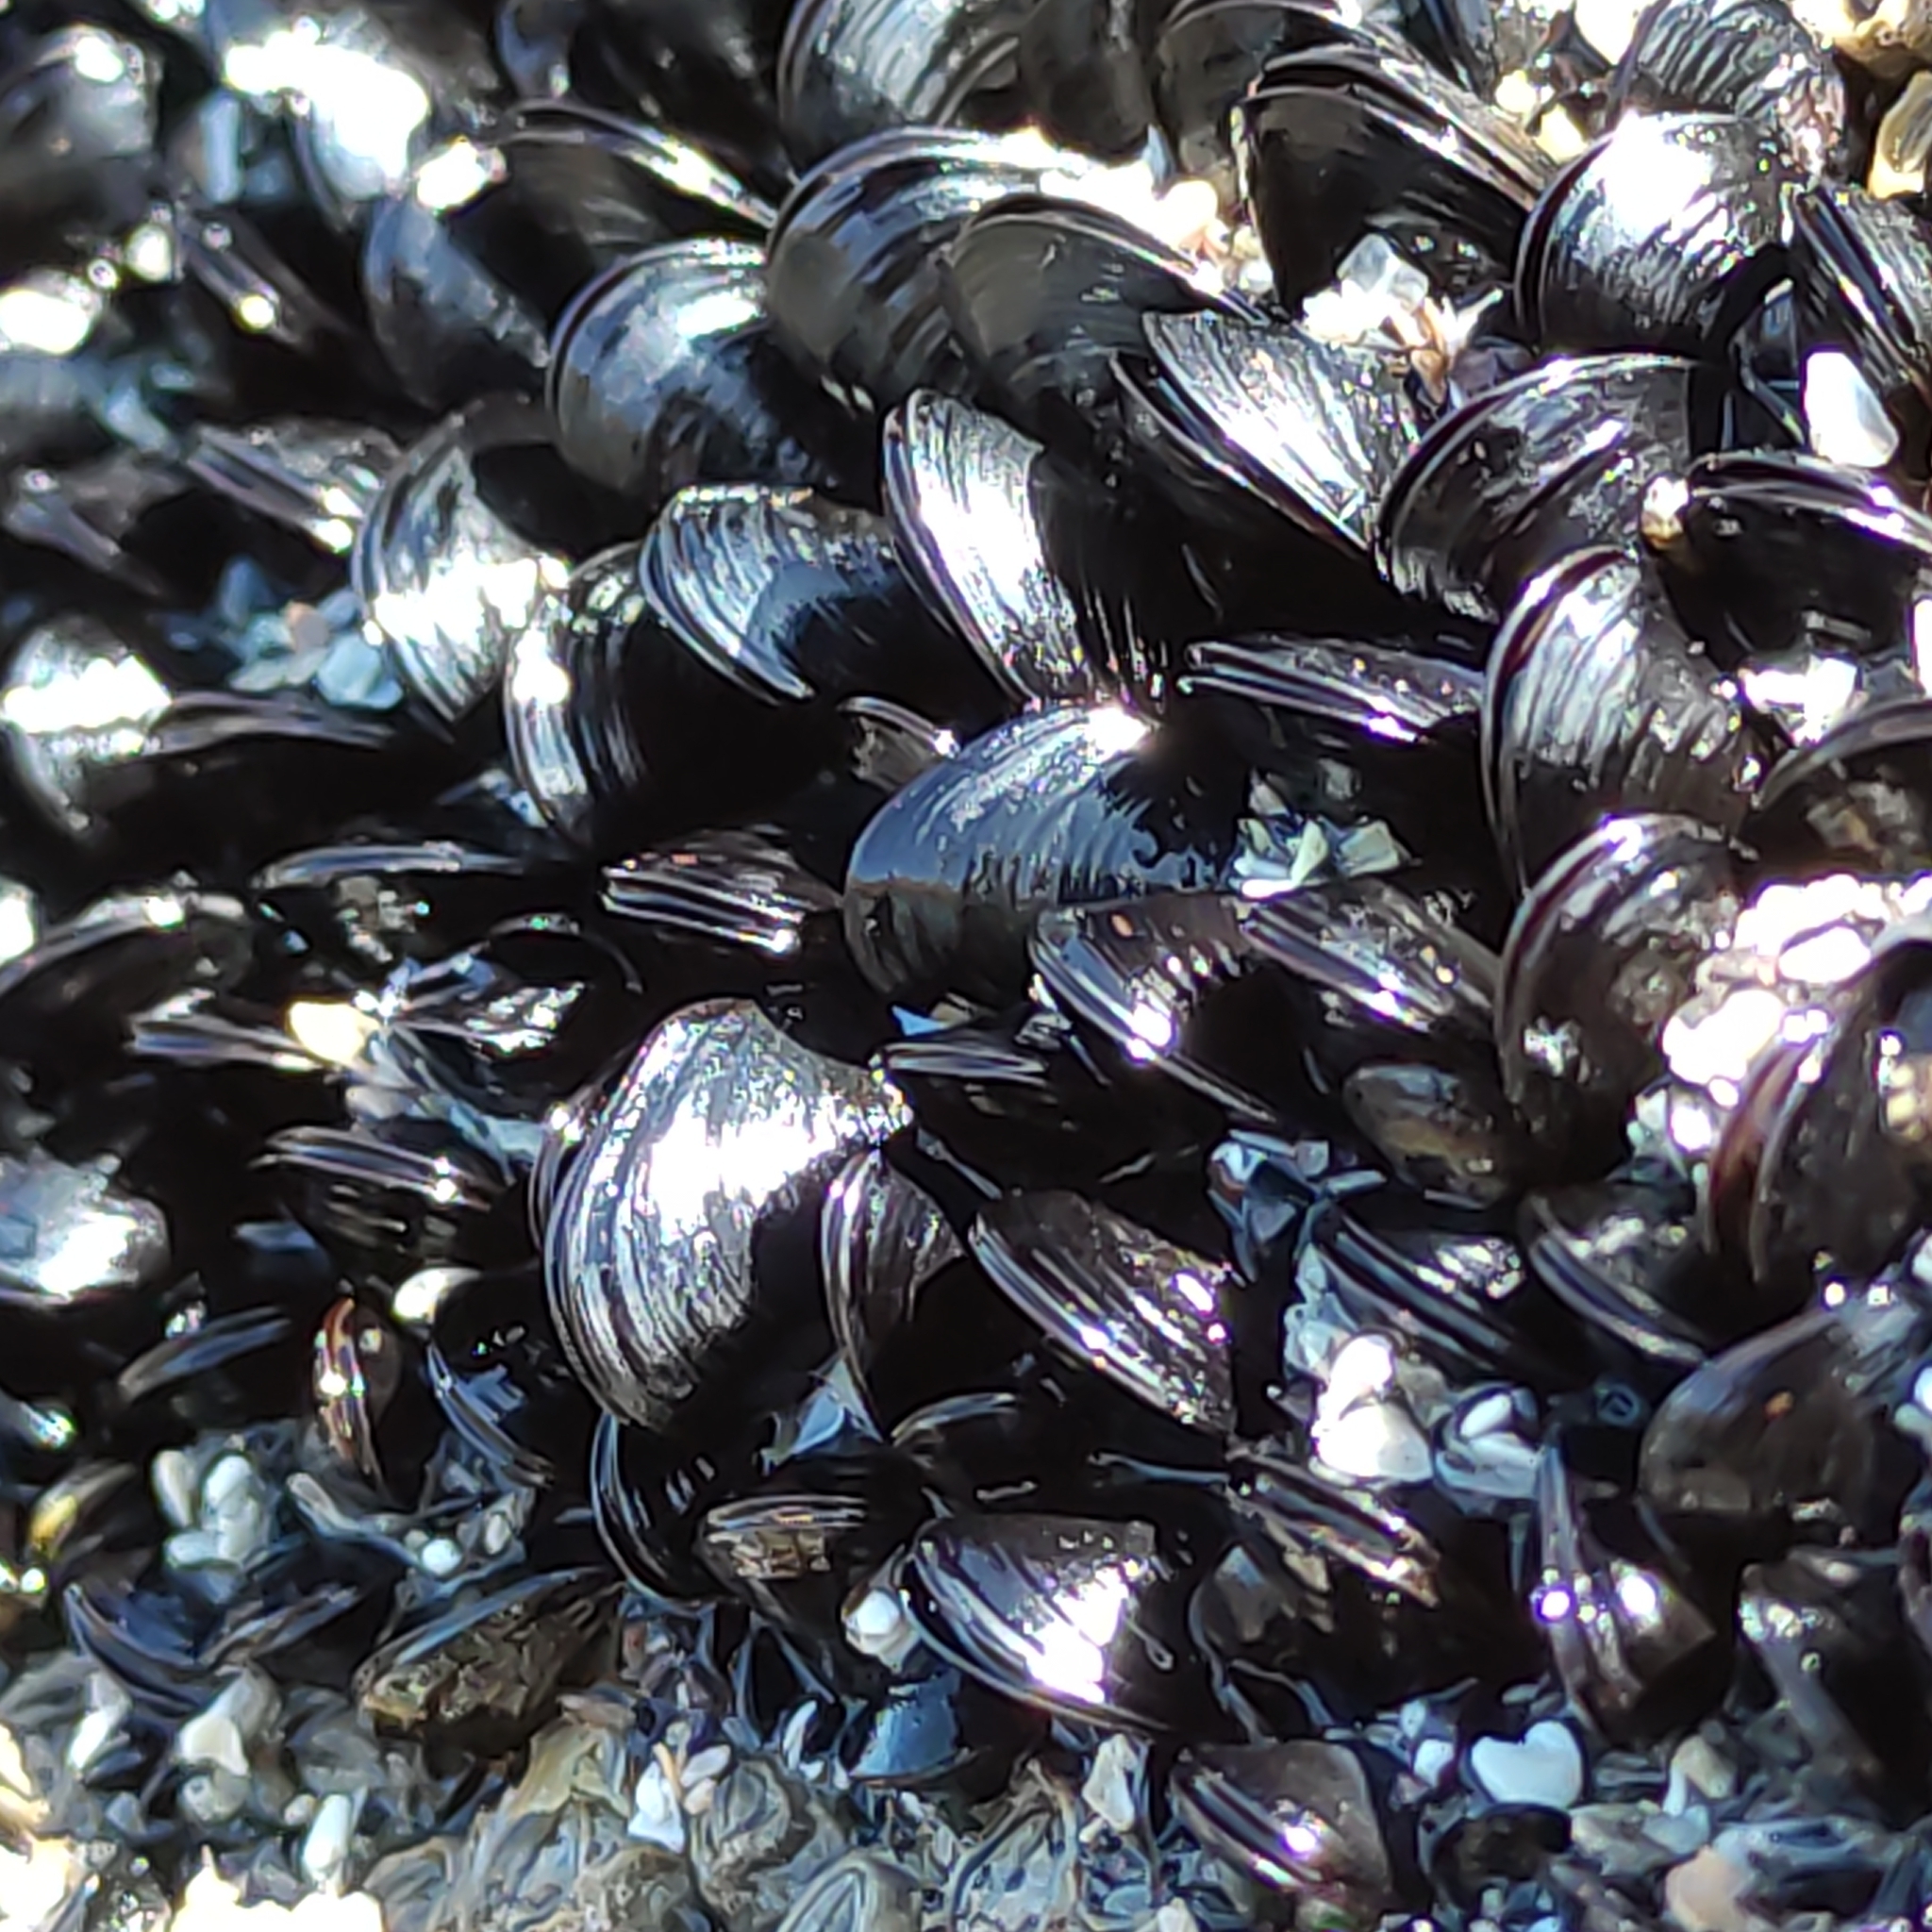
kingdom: Animalia
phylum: Mollusca
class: Bivalvia
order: Mytilida
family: Mytilidae
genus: Xenostrobus
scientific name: Xenostrobus neozelanicus
